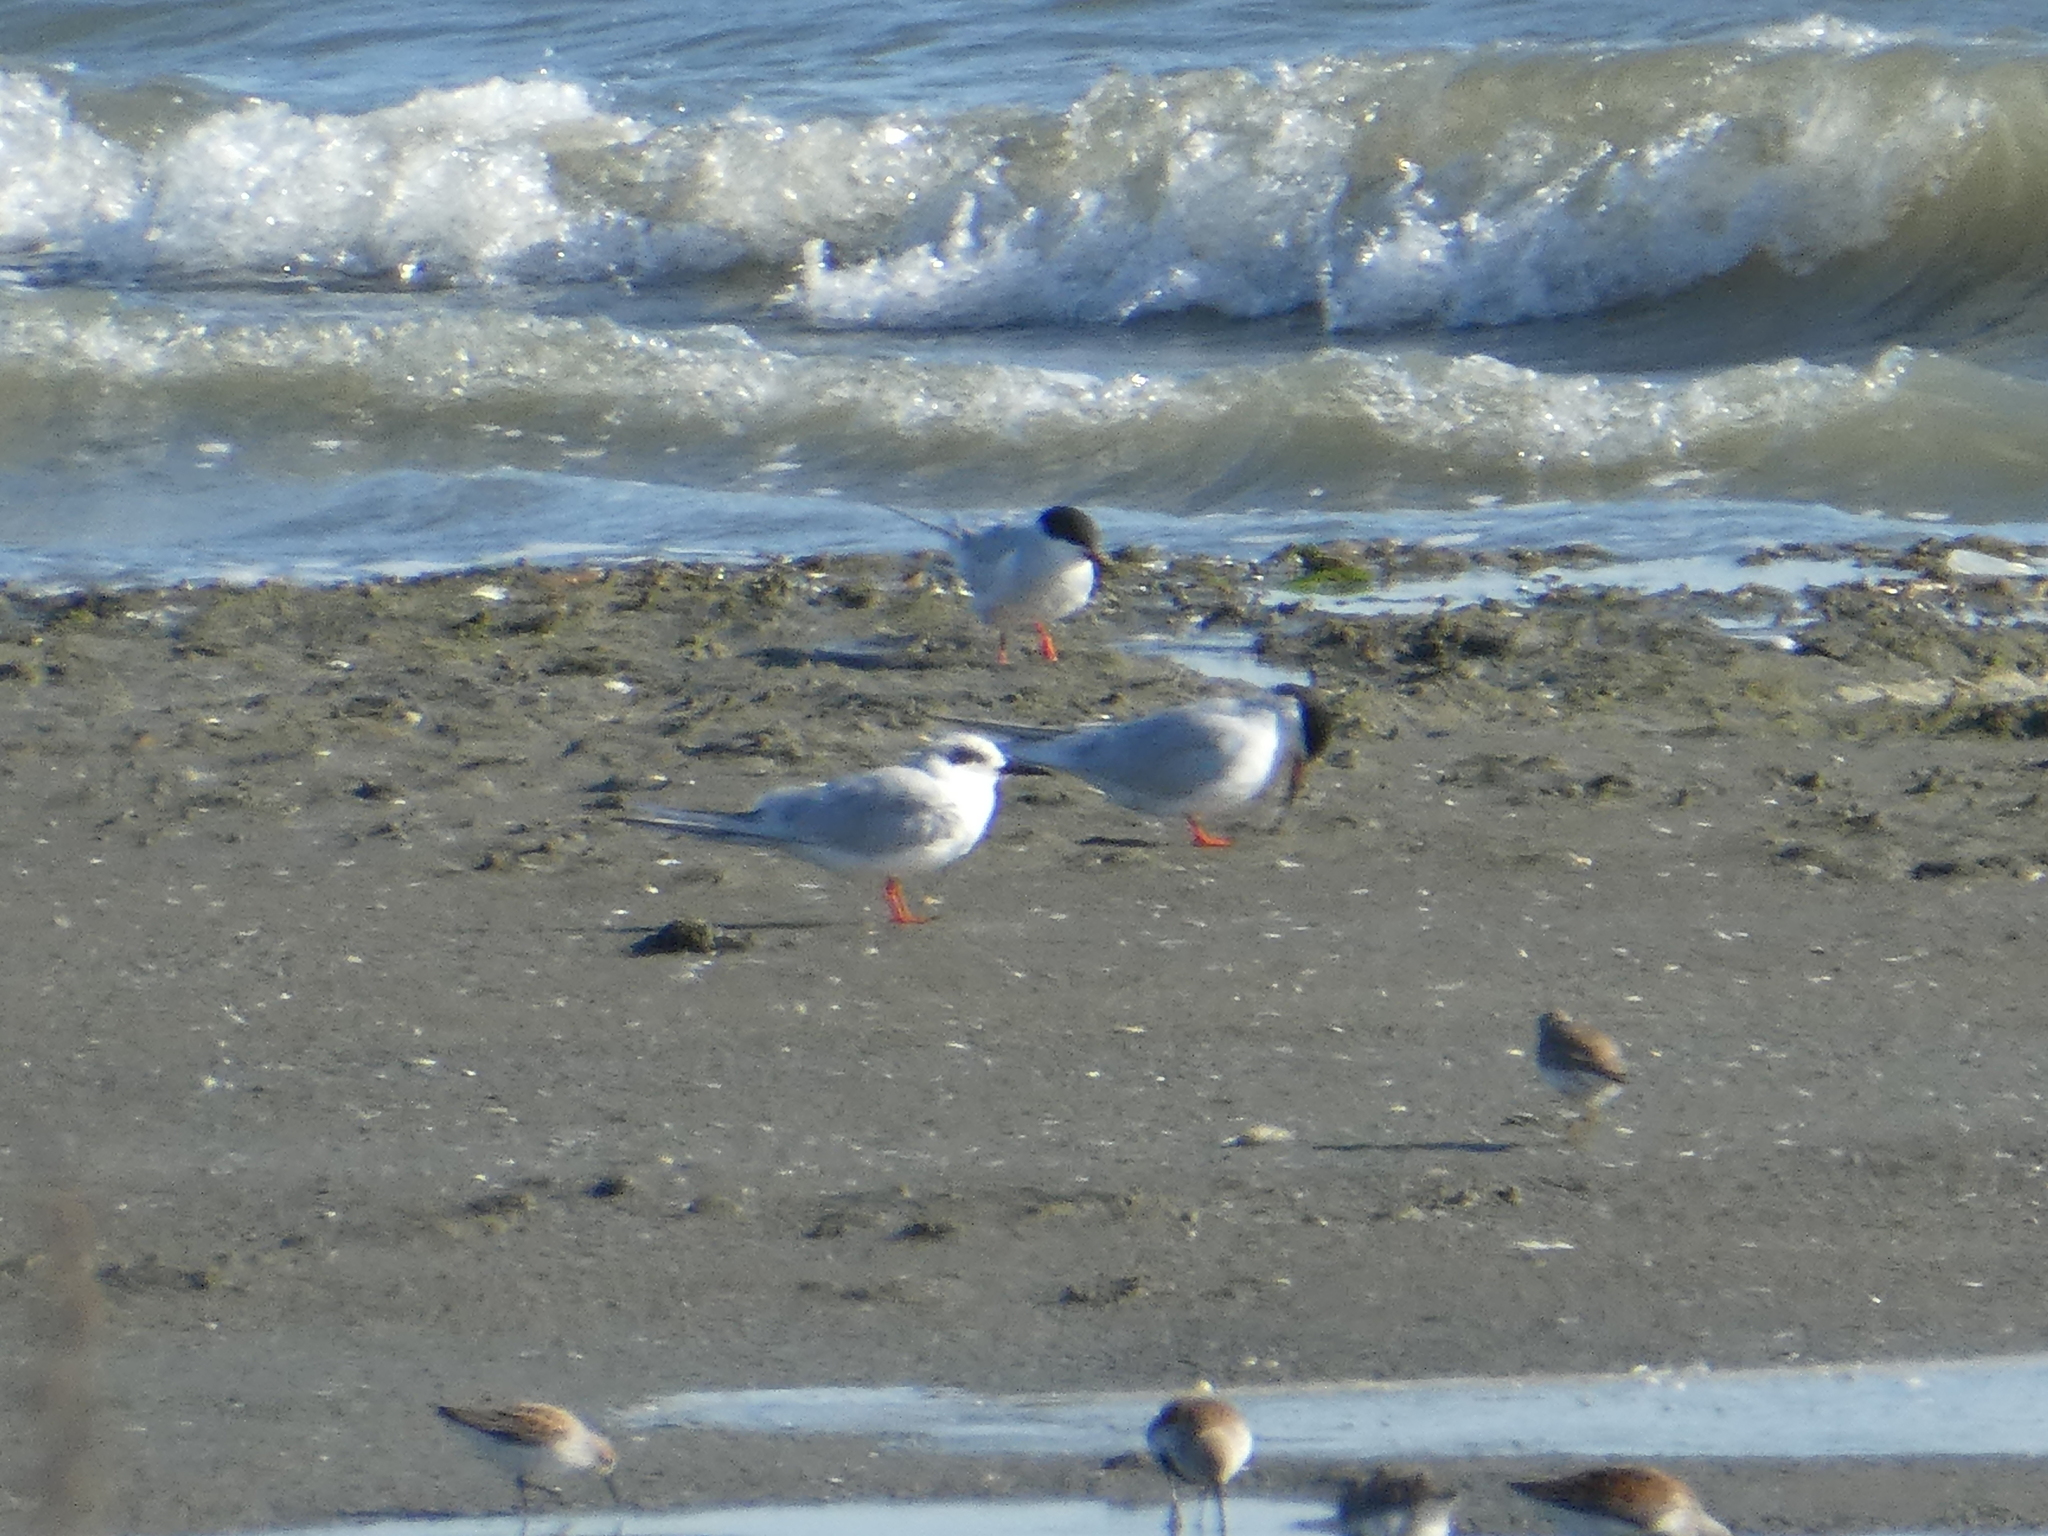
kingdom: Animalia
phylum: Chordata
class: Aves
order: Charadriiformes
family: Laridae
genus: Sterna
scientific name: Sterna forsteri
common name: Forster's tern
